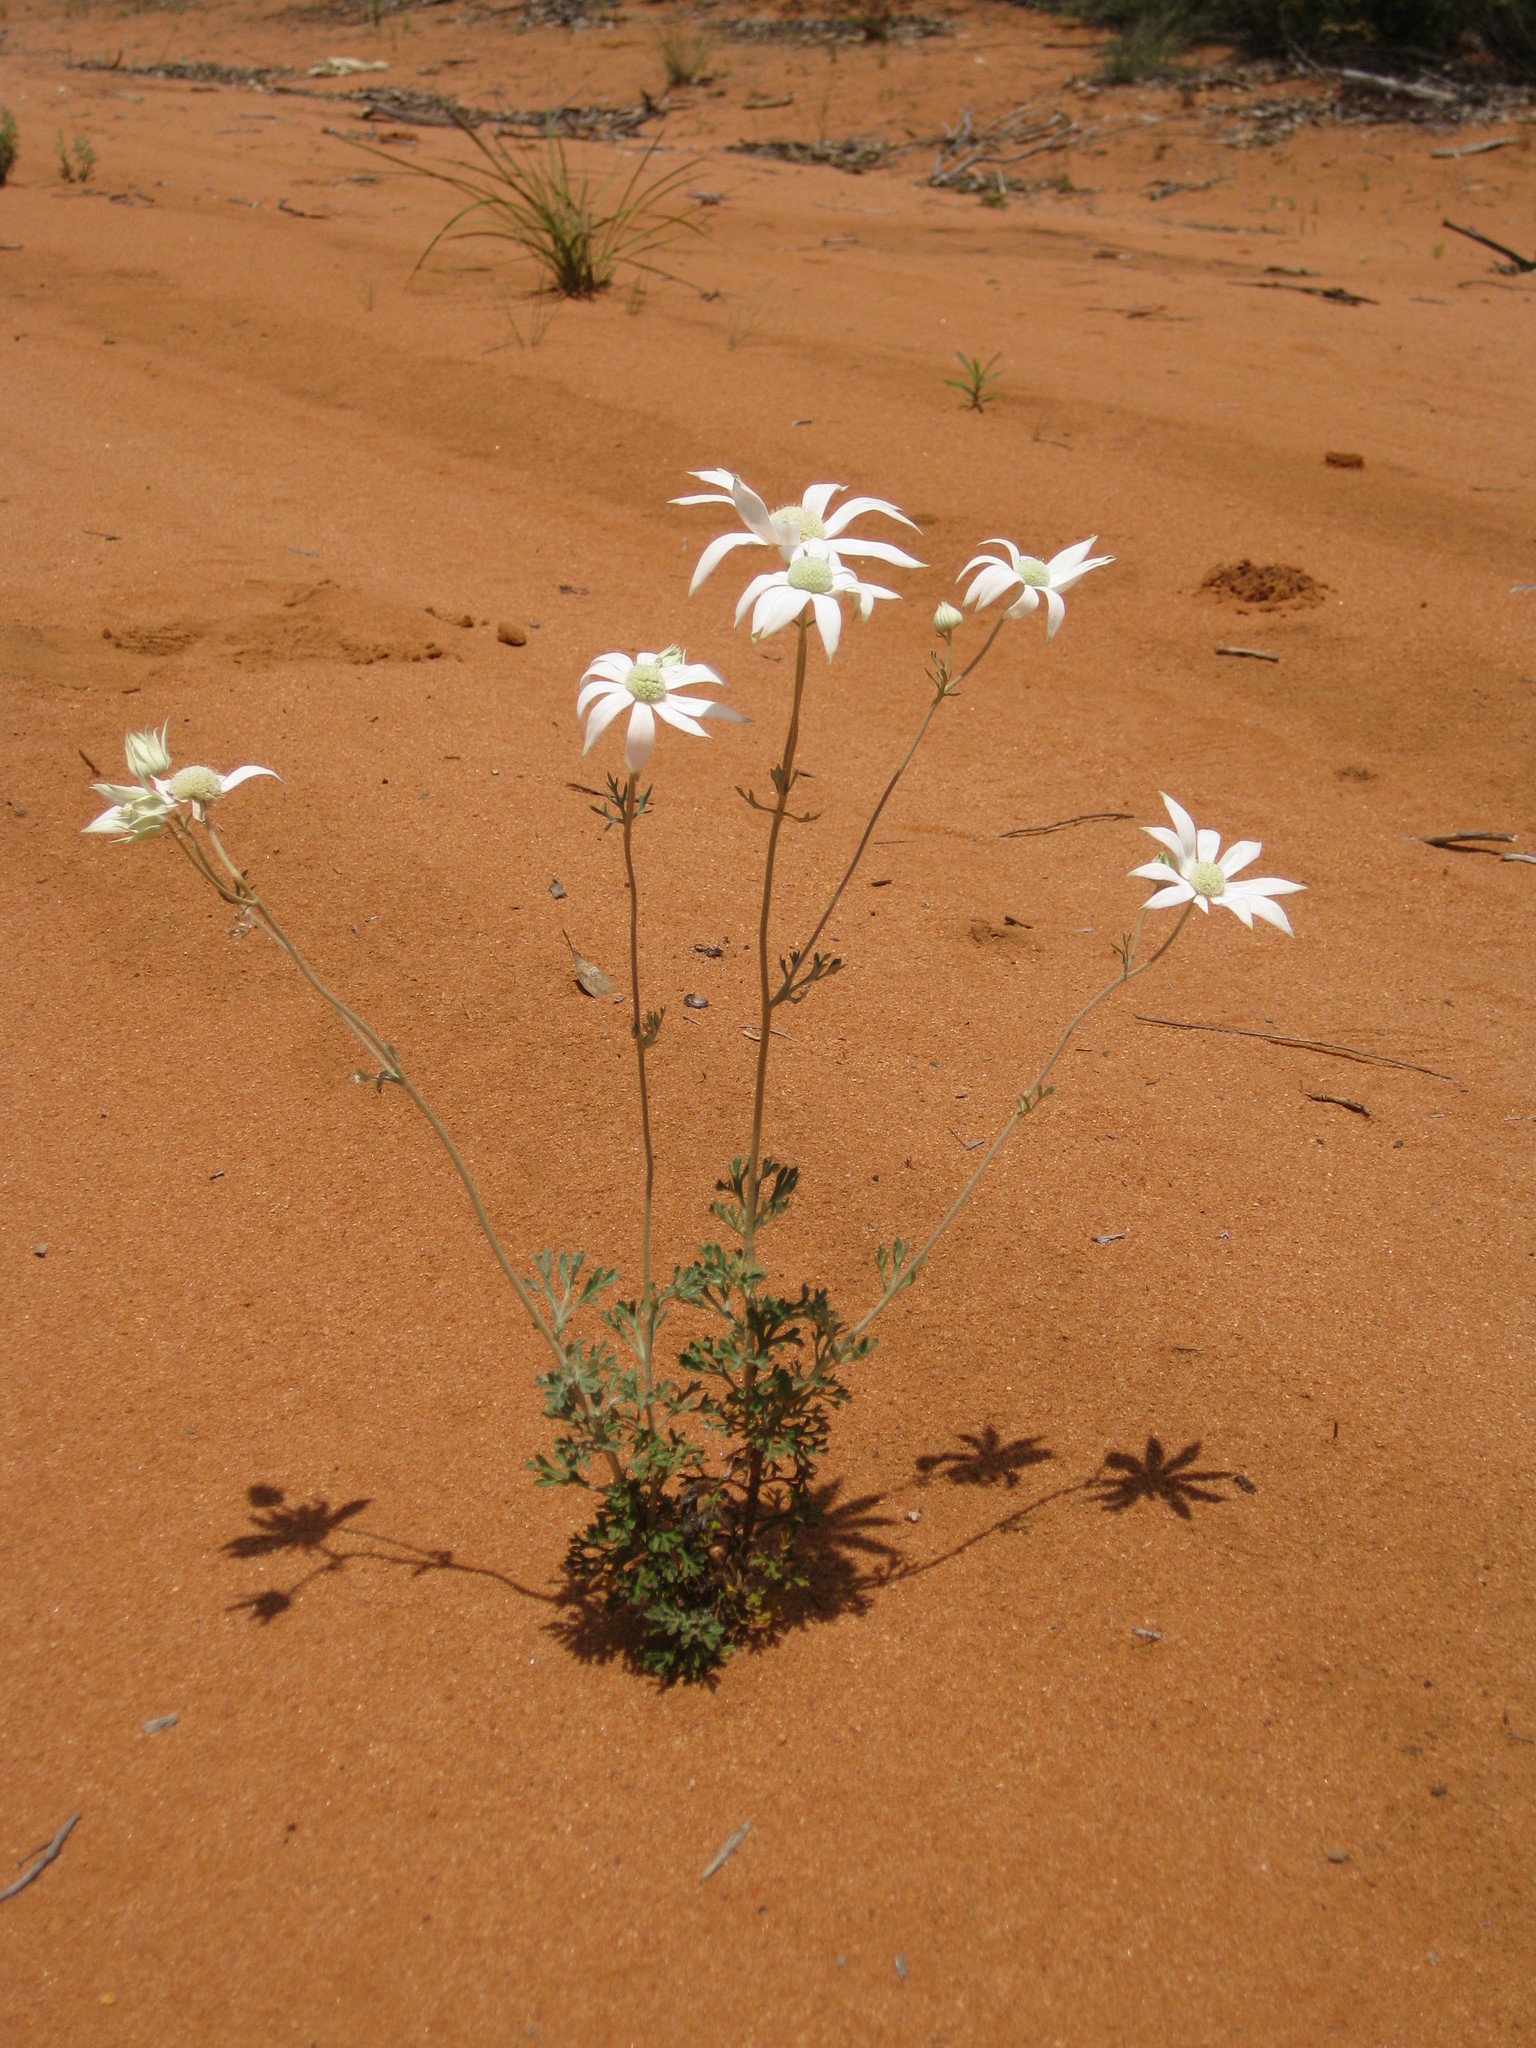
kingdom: Plantae
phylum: Tracheophyta
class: Magnoliopsida
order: Apiales
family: Apiaceae
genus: Actinotus
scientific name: Actinotus helianthi
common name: Flannel-flower
